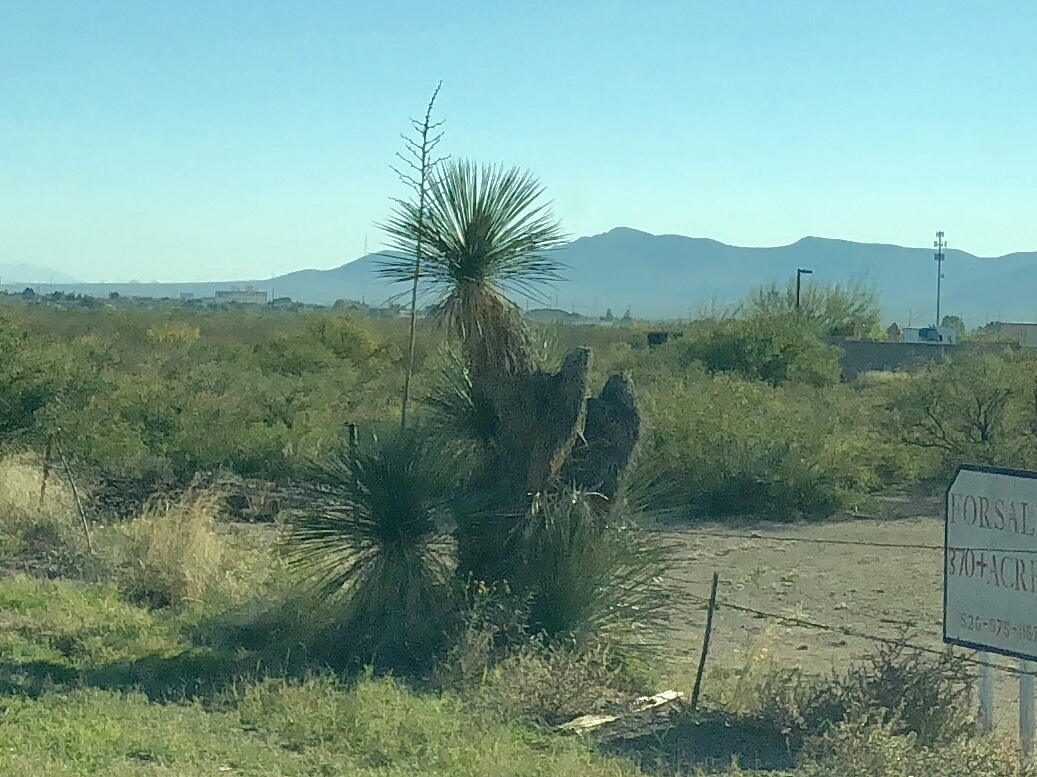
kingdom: Plantae
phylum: Tracheophyta
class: Liliopsida
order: Asparagales
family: Asparagaceae
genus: Yucca
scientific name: Yucca elata
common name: Palmella
